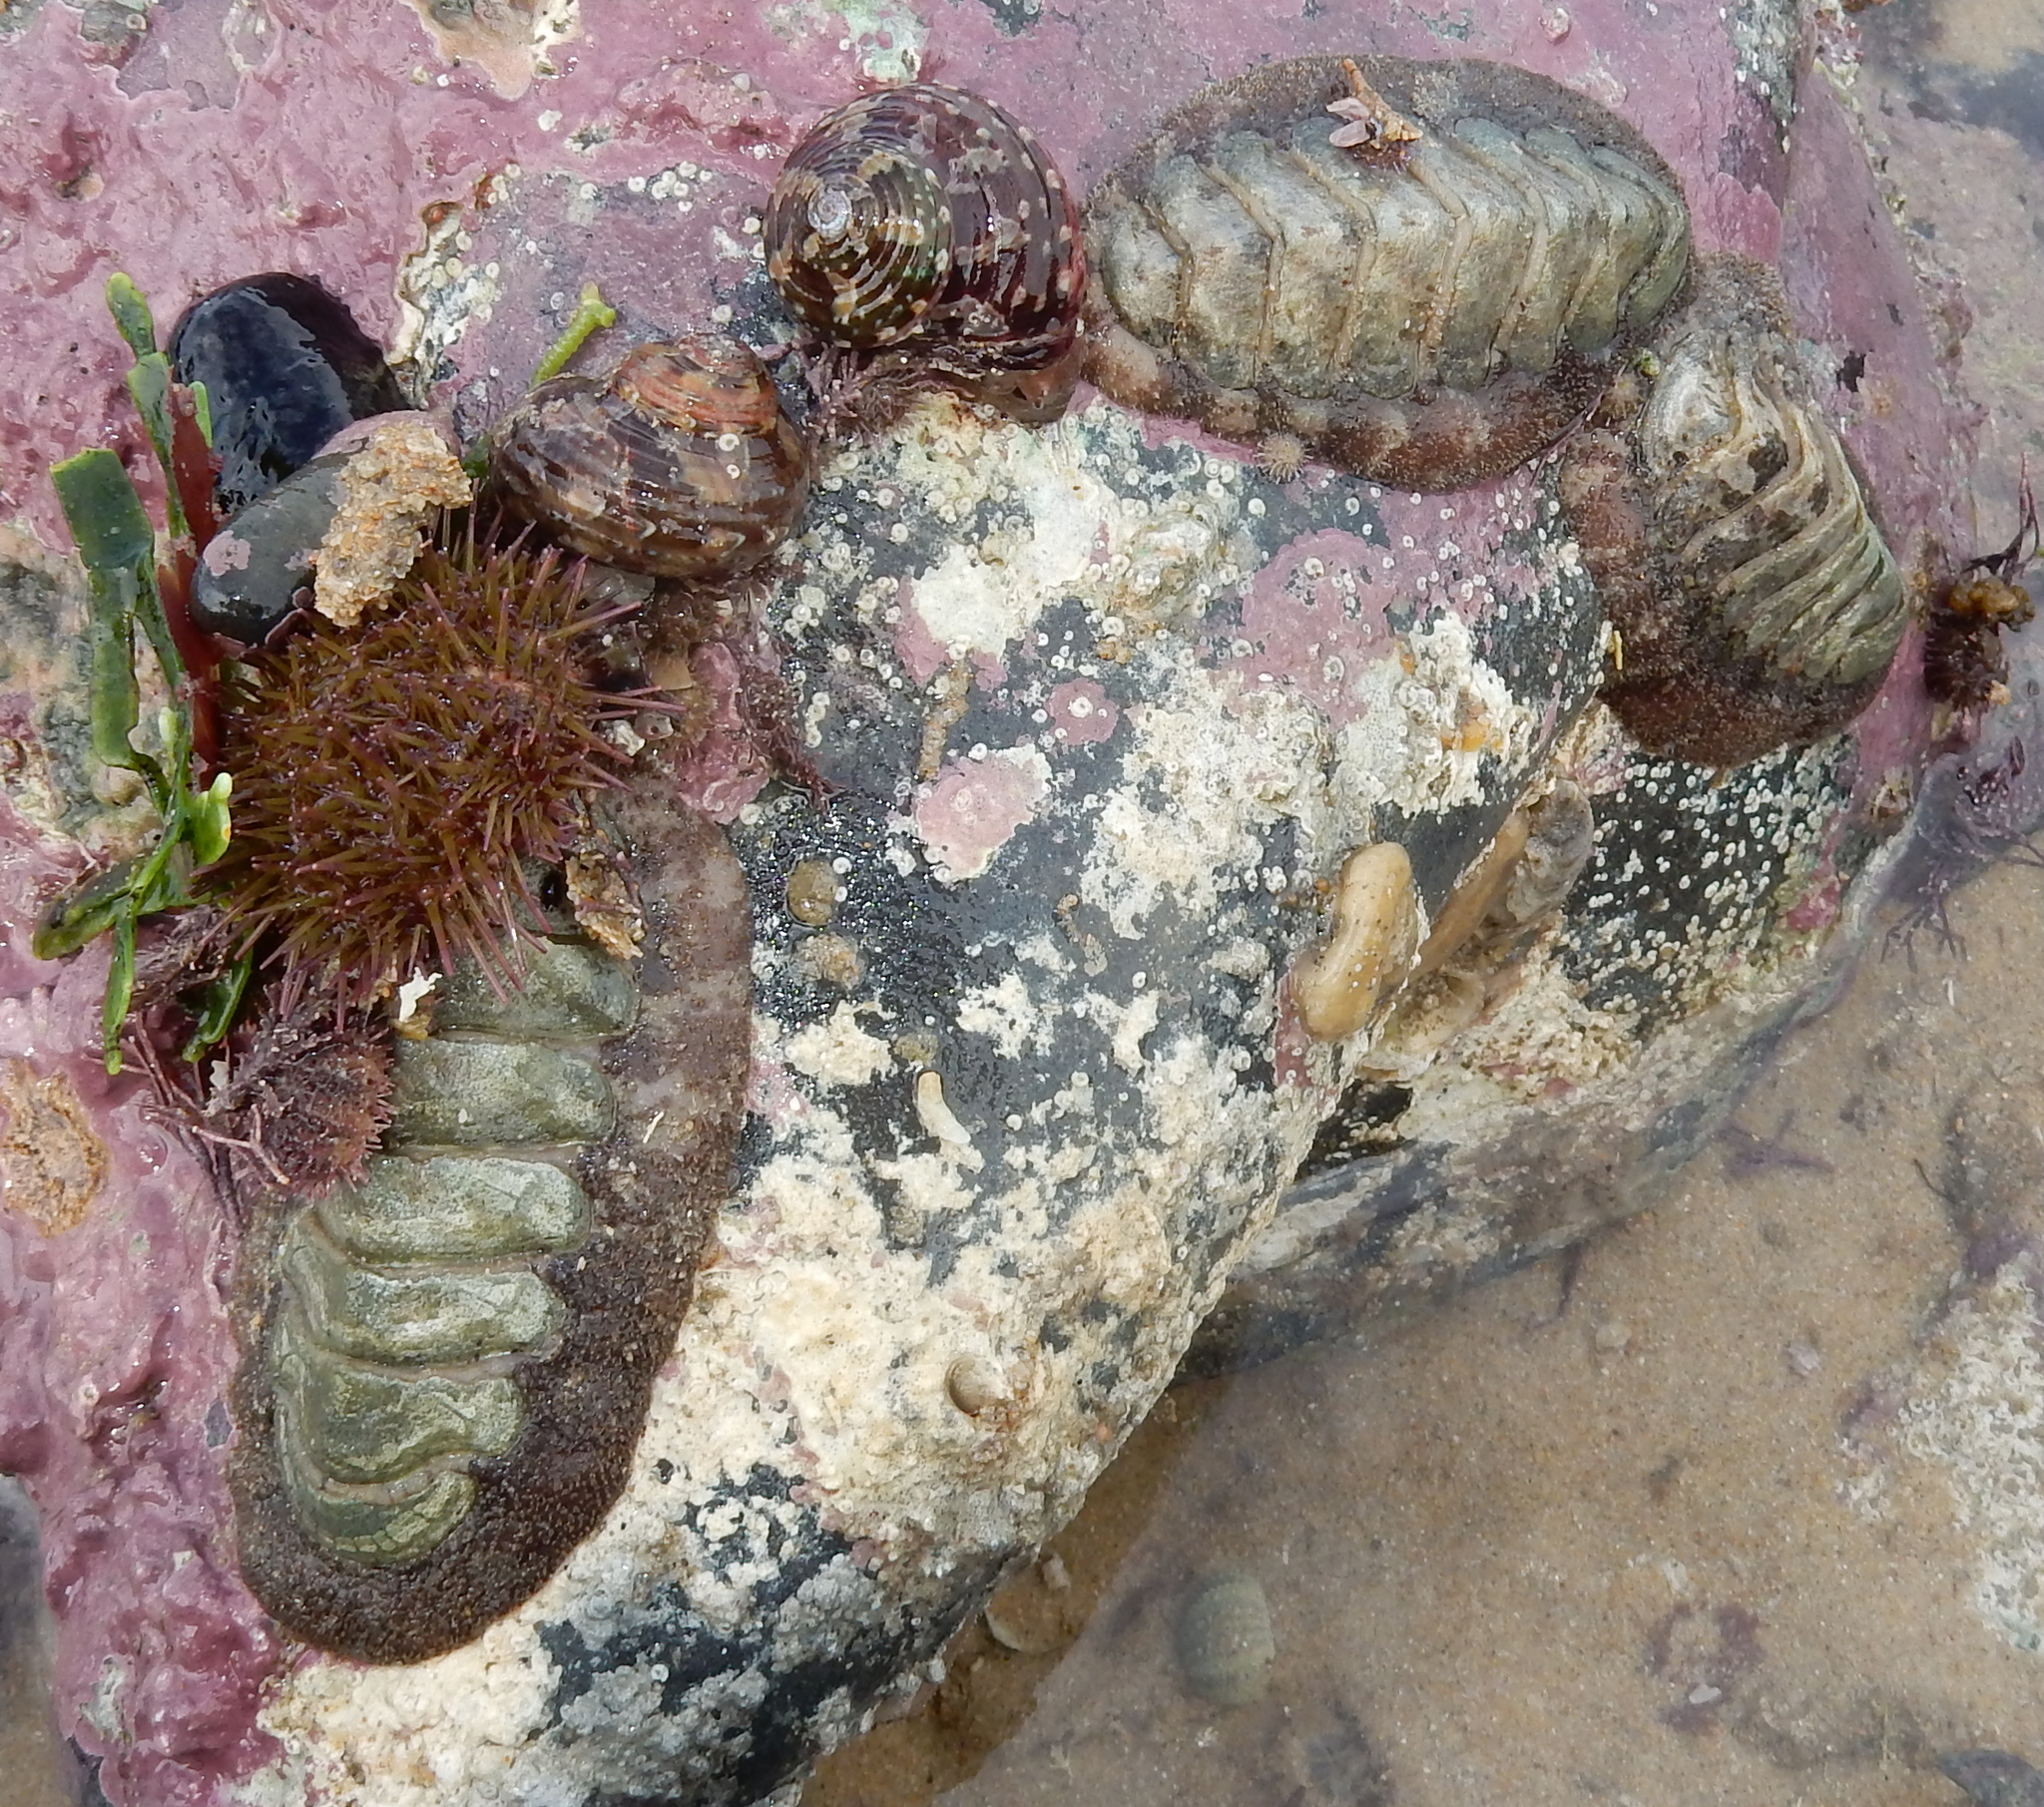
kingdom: Animalia
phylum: Mollusca
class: Polyplacophora
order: Chitonida
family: Chaetopleuridae
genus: Dinoplax
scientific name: Dinoplax gigas
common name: Armadillo
